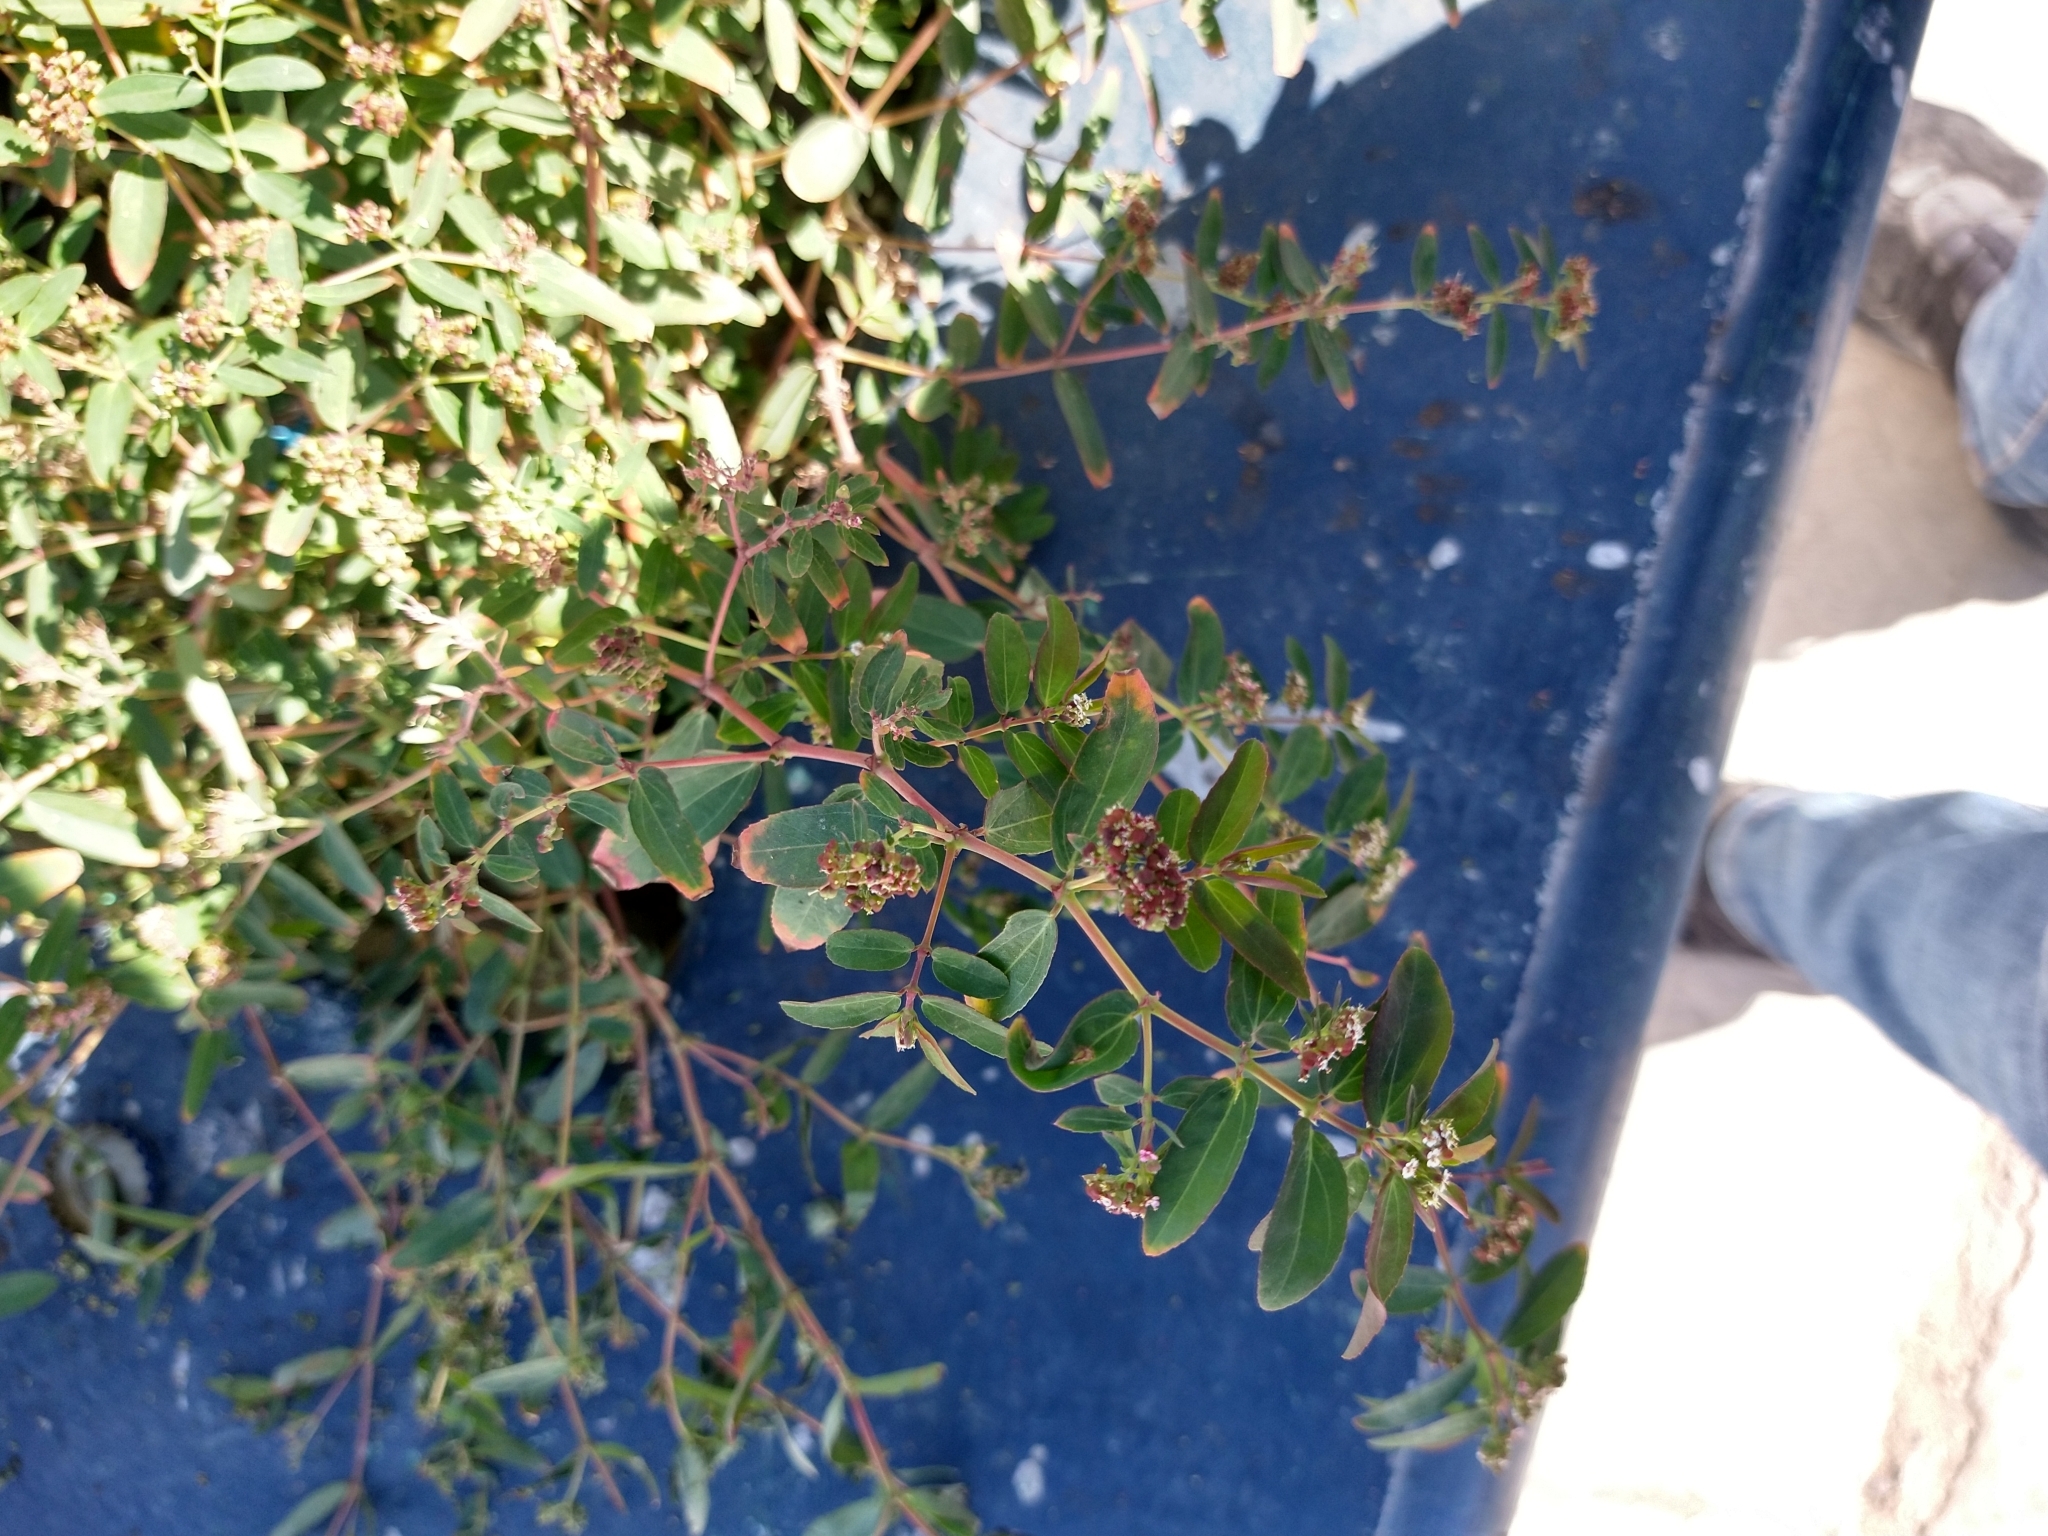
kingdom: Plantae
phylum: Tracheophyta
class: Magnoliopsida
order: Malpighiales
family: Euphorbiaceae
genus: Euphorbia
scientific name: Euphorbia hypericifolia
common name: Graceful sandmat
